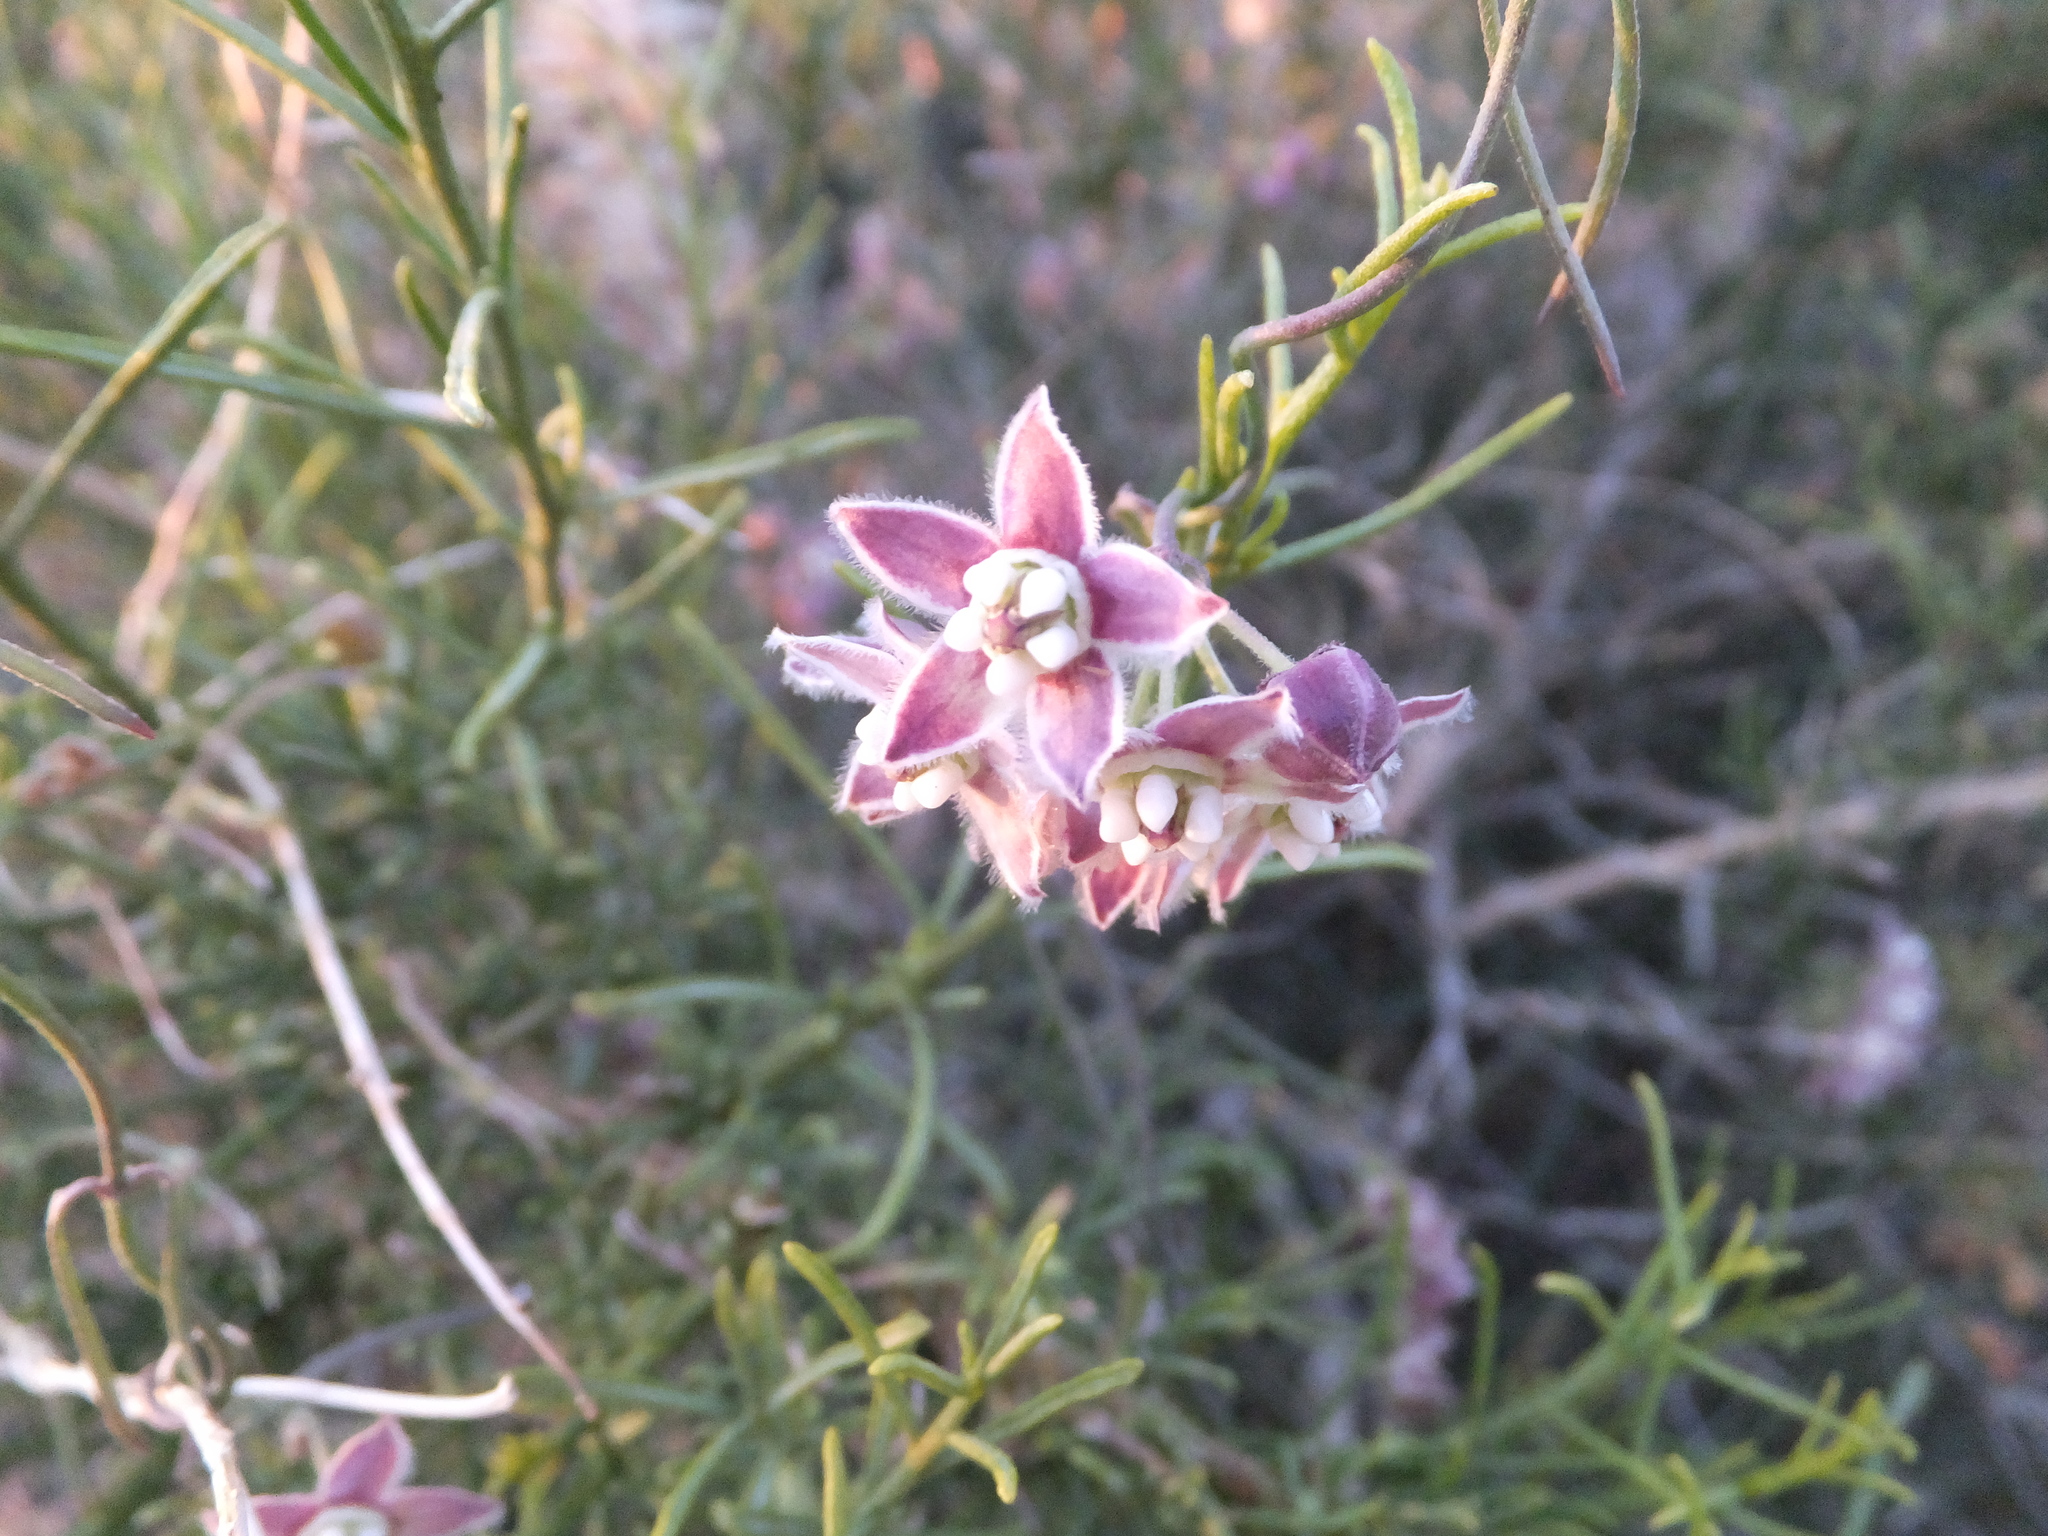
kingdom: Plantae
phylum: Tracheophyta
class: Magnoliopsida
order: Gentianales
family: Apocynaceae
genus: Funastrum
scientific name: Funastrum heterophyllum
